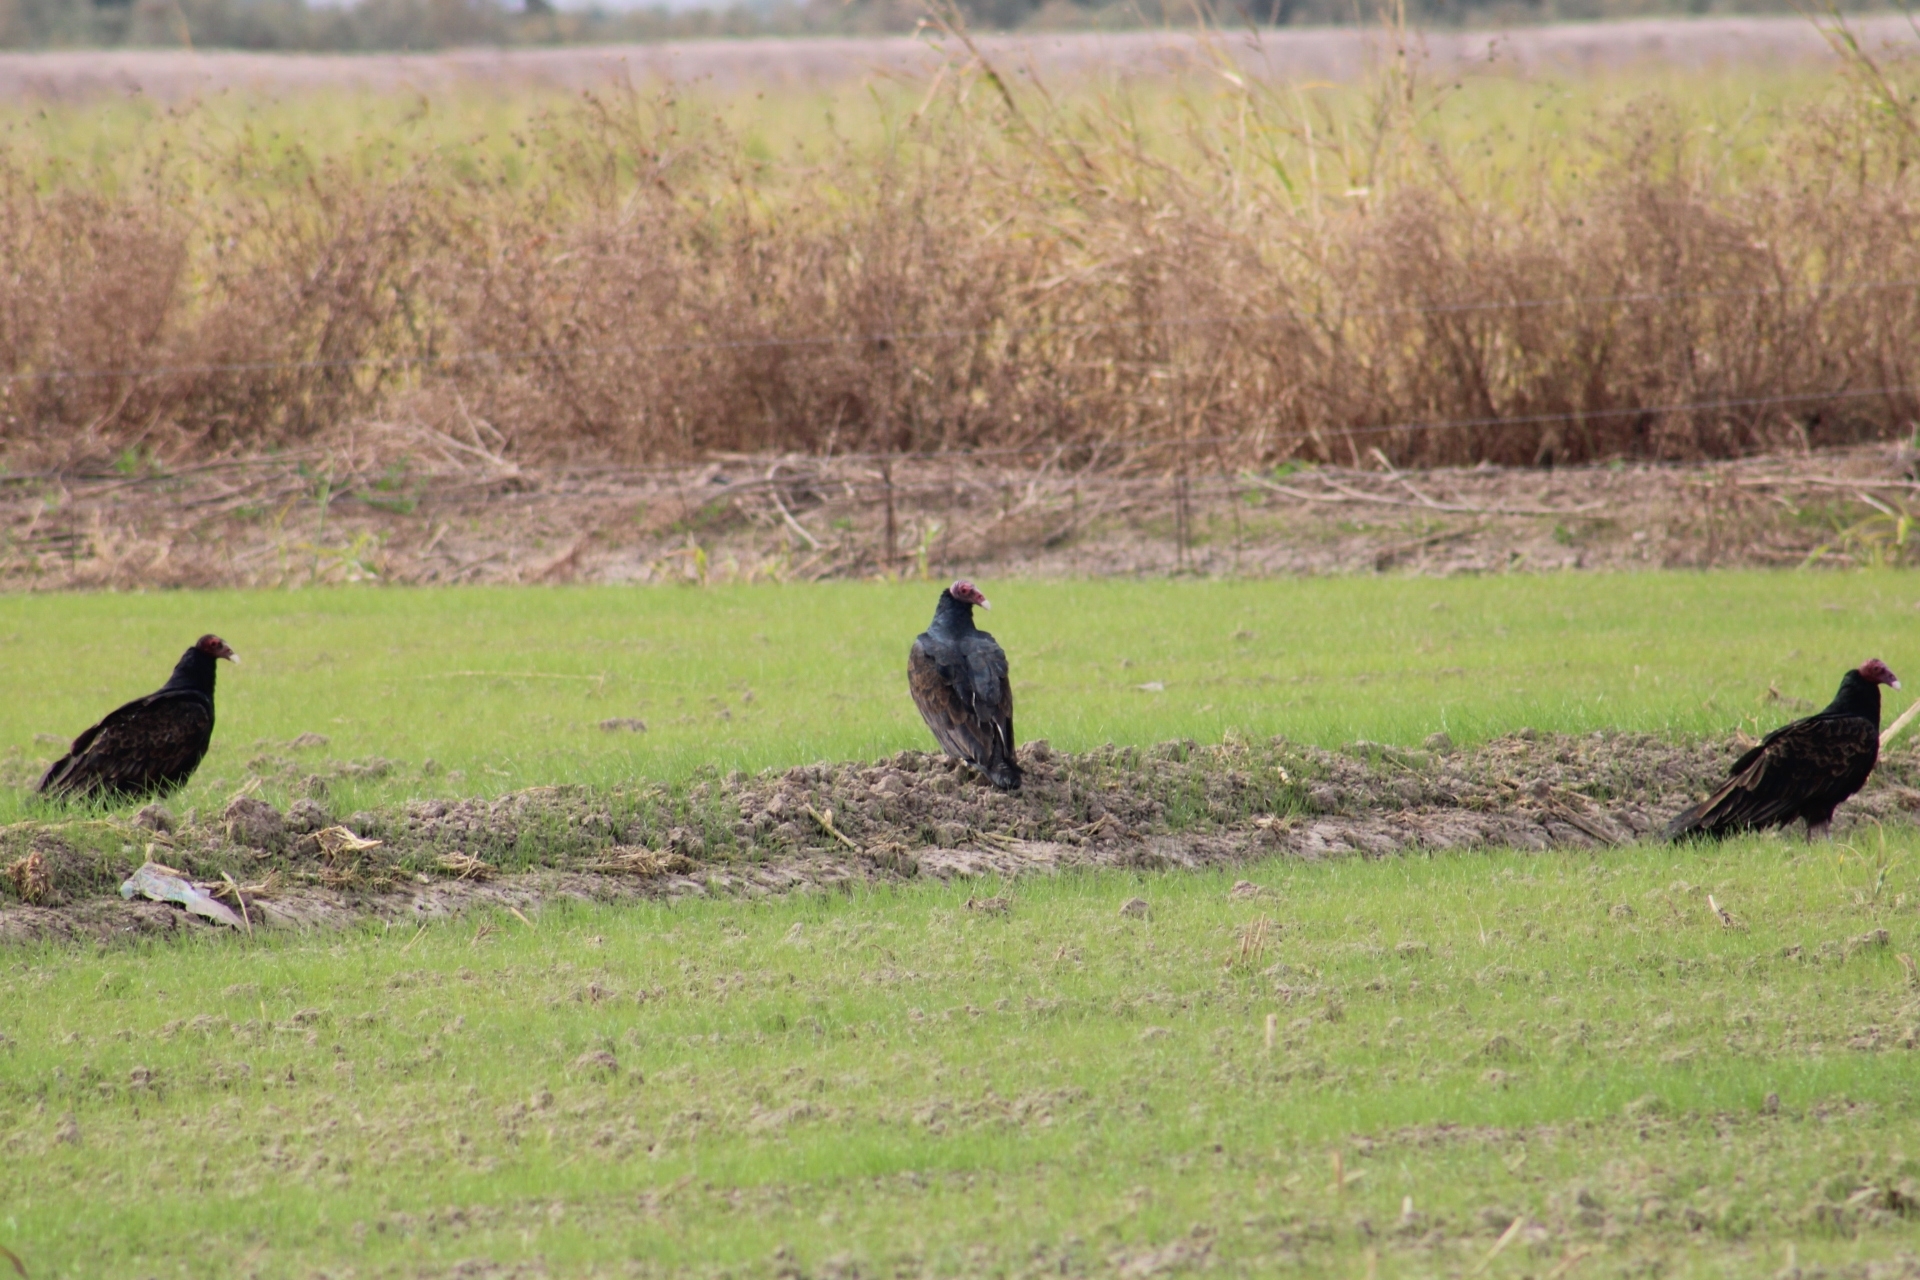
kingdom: Animalia
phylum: Chordata
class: Aves
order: Accipitriformes
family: Cathartidae
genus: Cathartes
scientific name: Cathartes aura
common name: Turkey vulture
